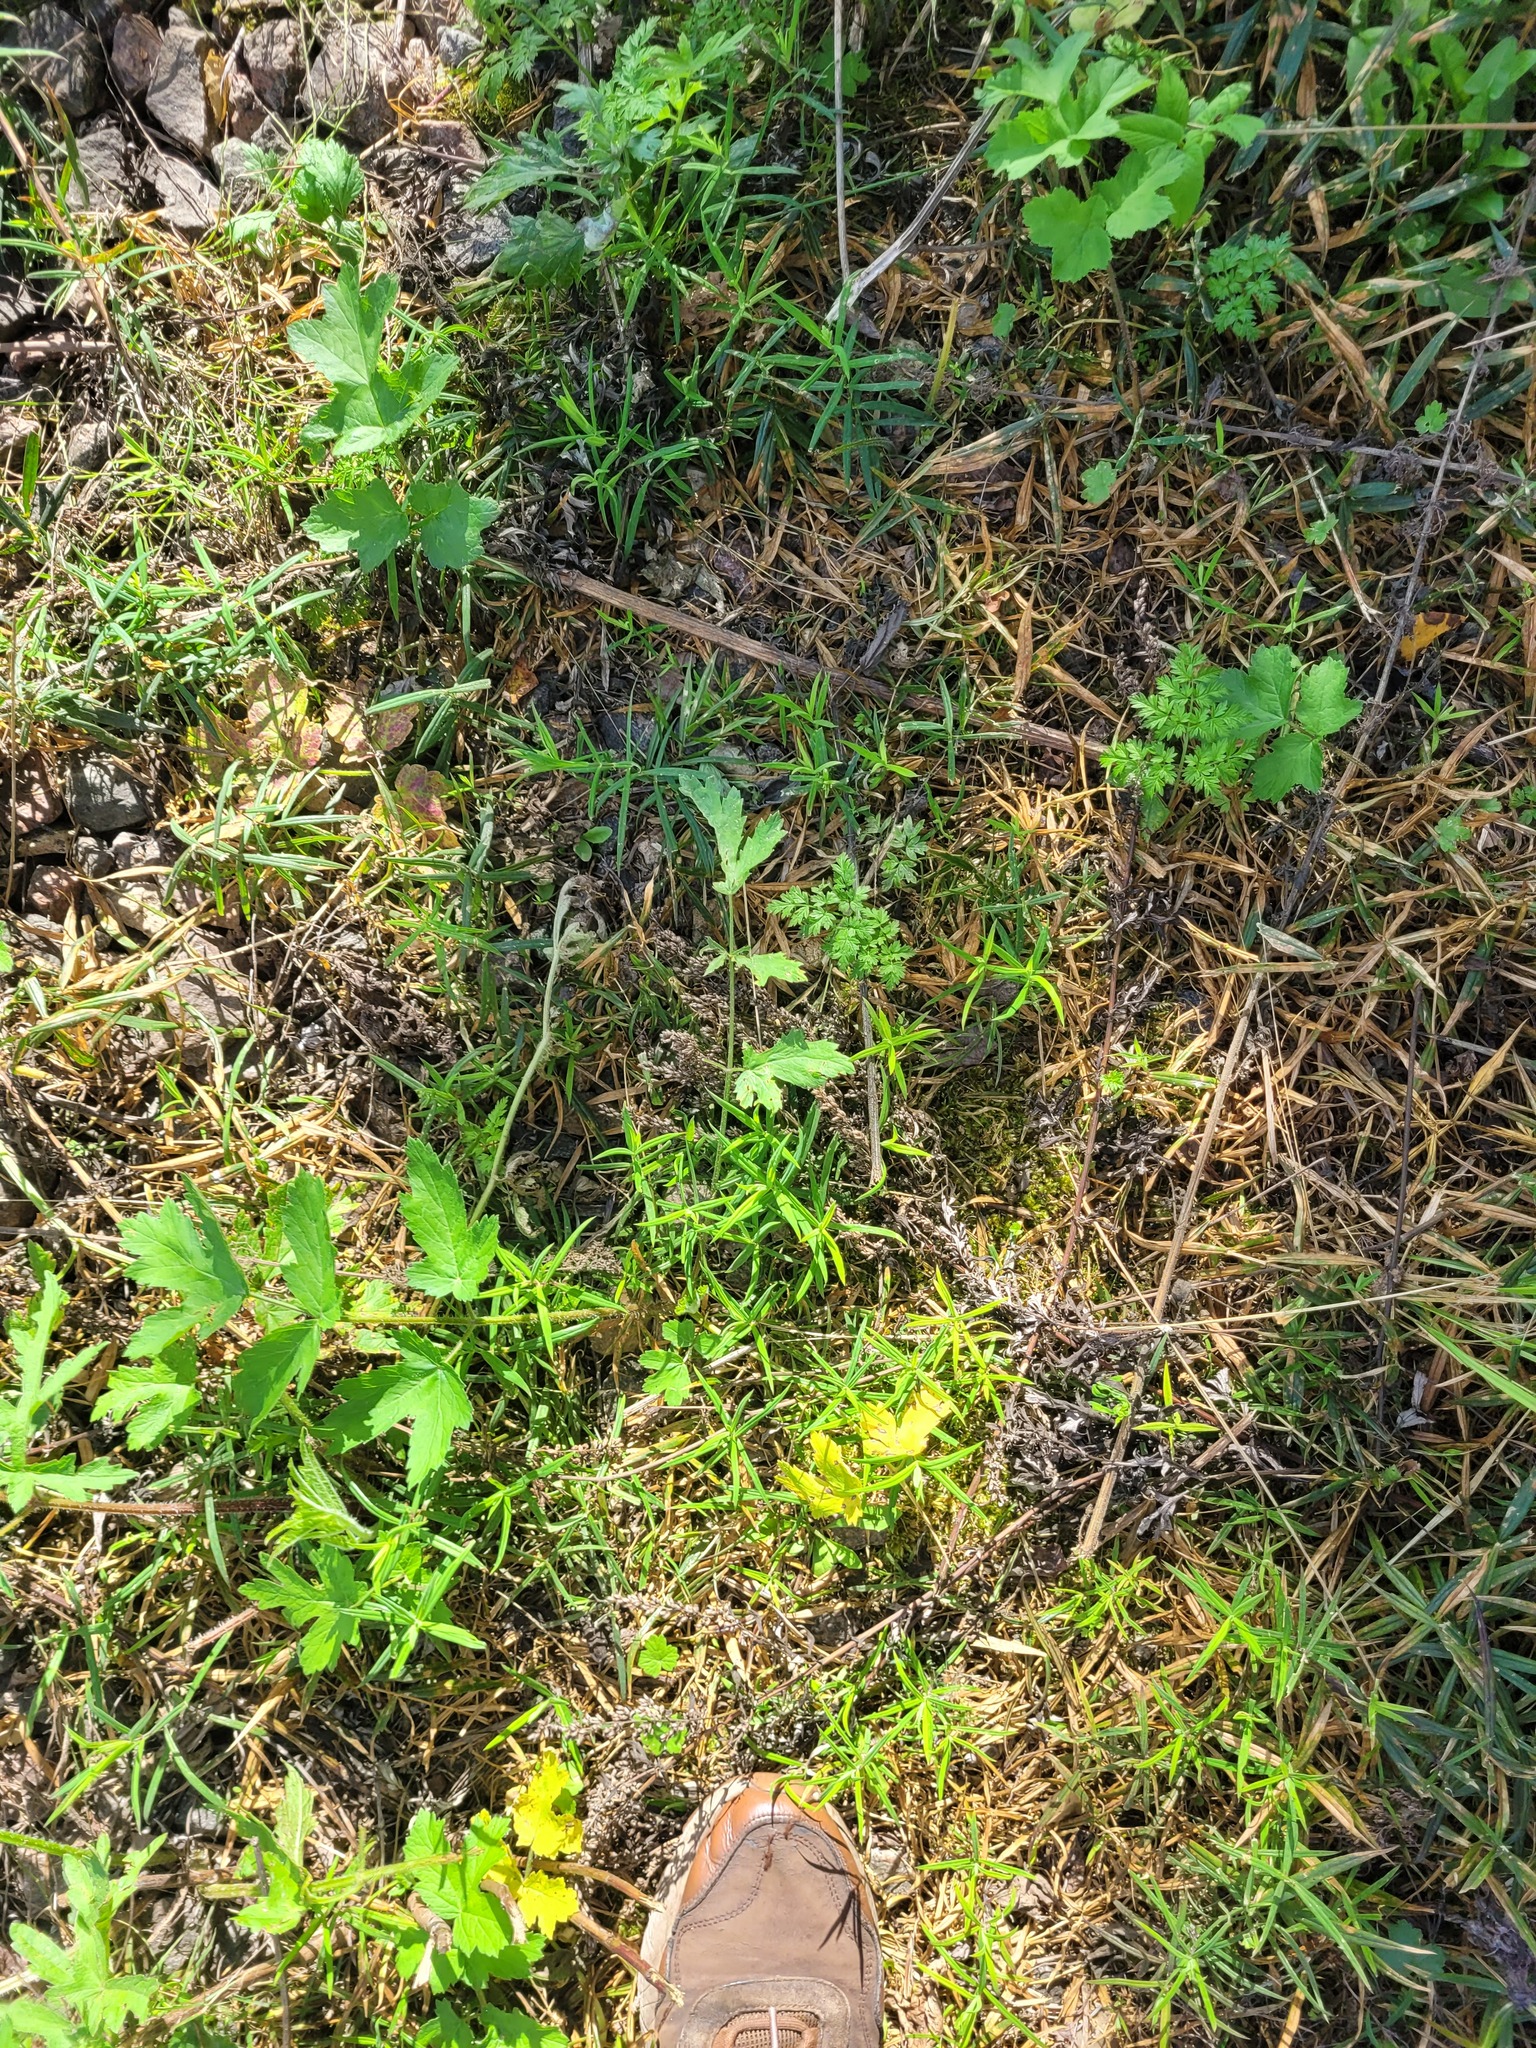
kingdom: Plantae
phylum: Tracheophyta
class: Magnoliopsida
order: Caryophyllales
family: Caryophyllaceae
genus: Rabelera
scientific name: Rabelera holostea
